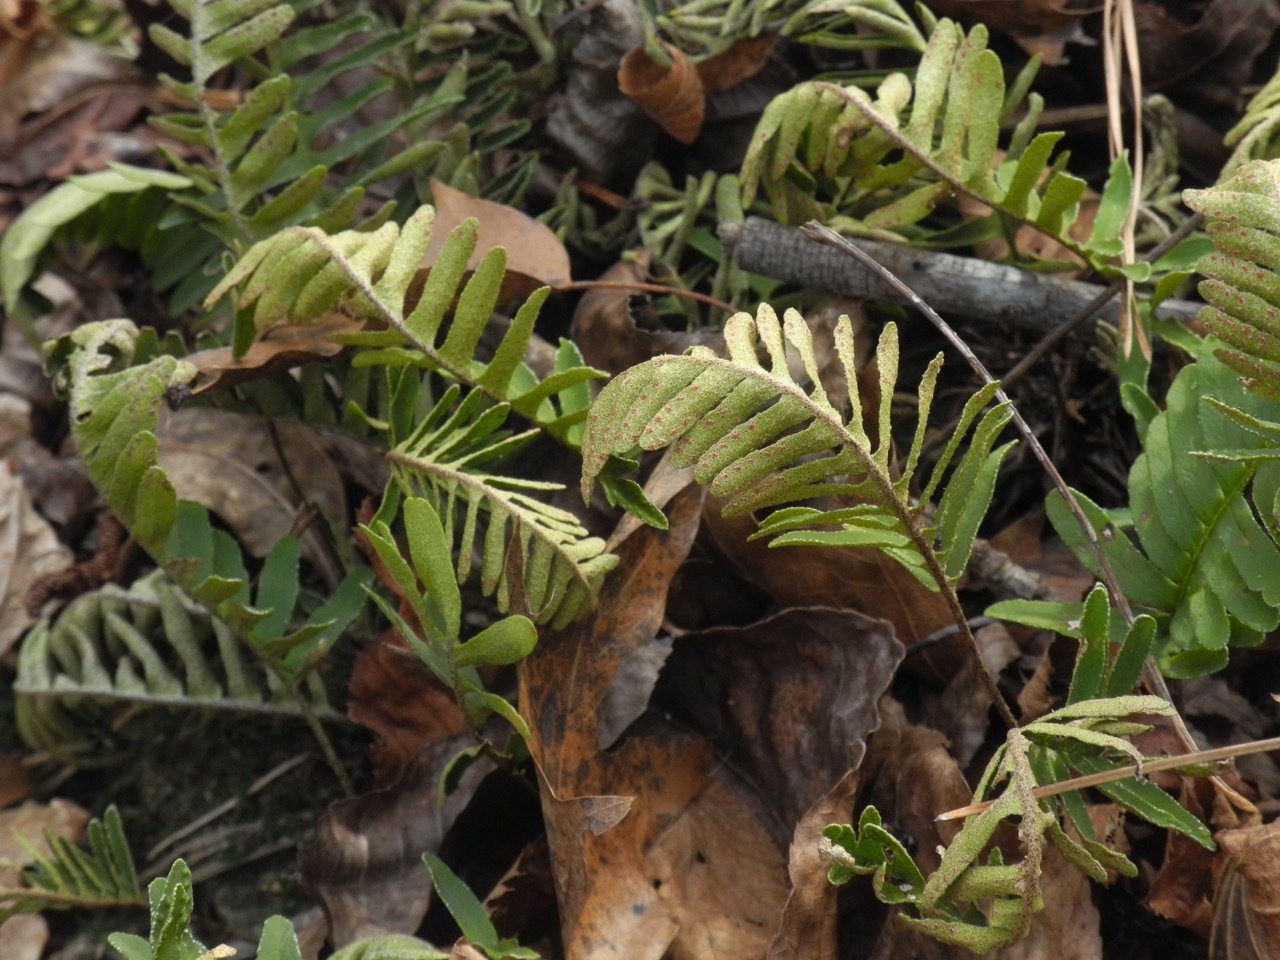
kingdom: Plantae
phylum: Tracheophyta
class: Polypodiopsida
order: Polypodiales
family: Polypodiaceae
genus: Pleopeltis
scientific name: Pleopeltis michauxiana
